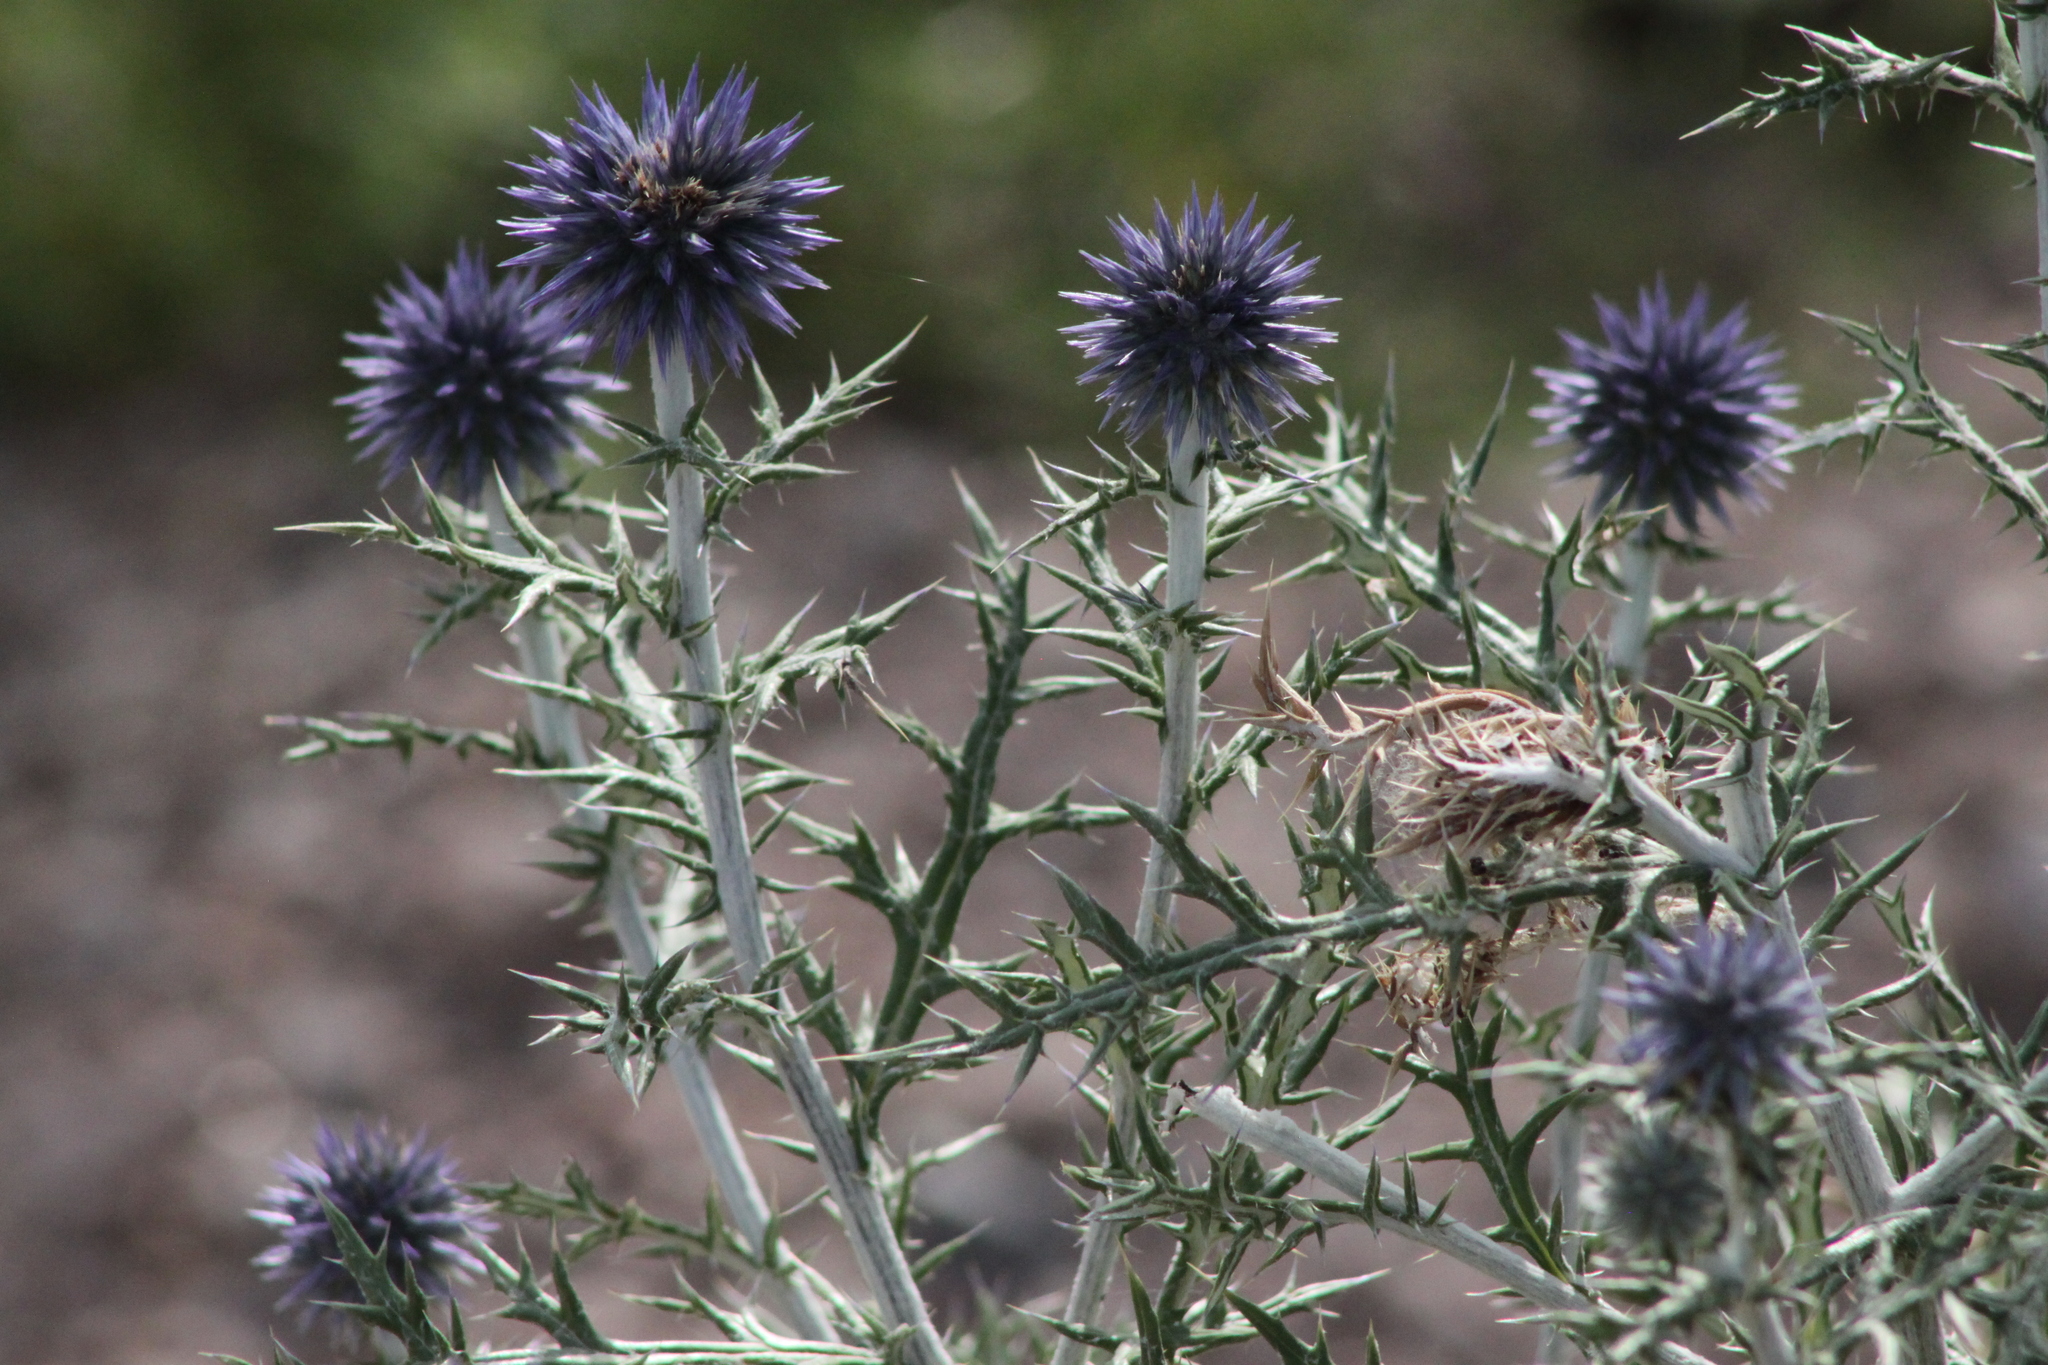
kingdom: Plantae
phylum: Tracheophyta
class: Magnoliopsida
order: Asterales
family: Asteraceae
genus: Echinops
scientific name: Echinops ritro
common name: Globe thistle
